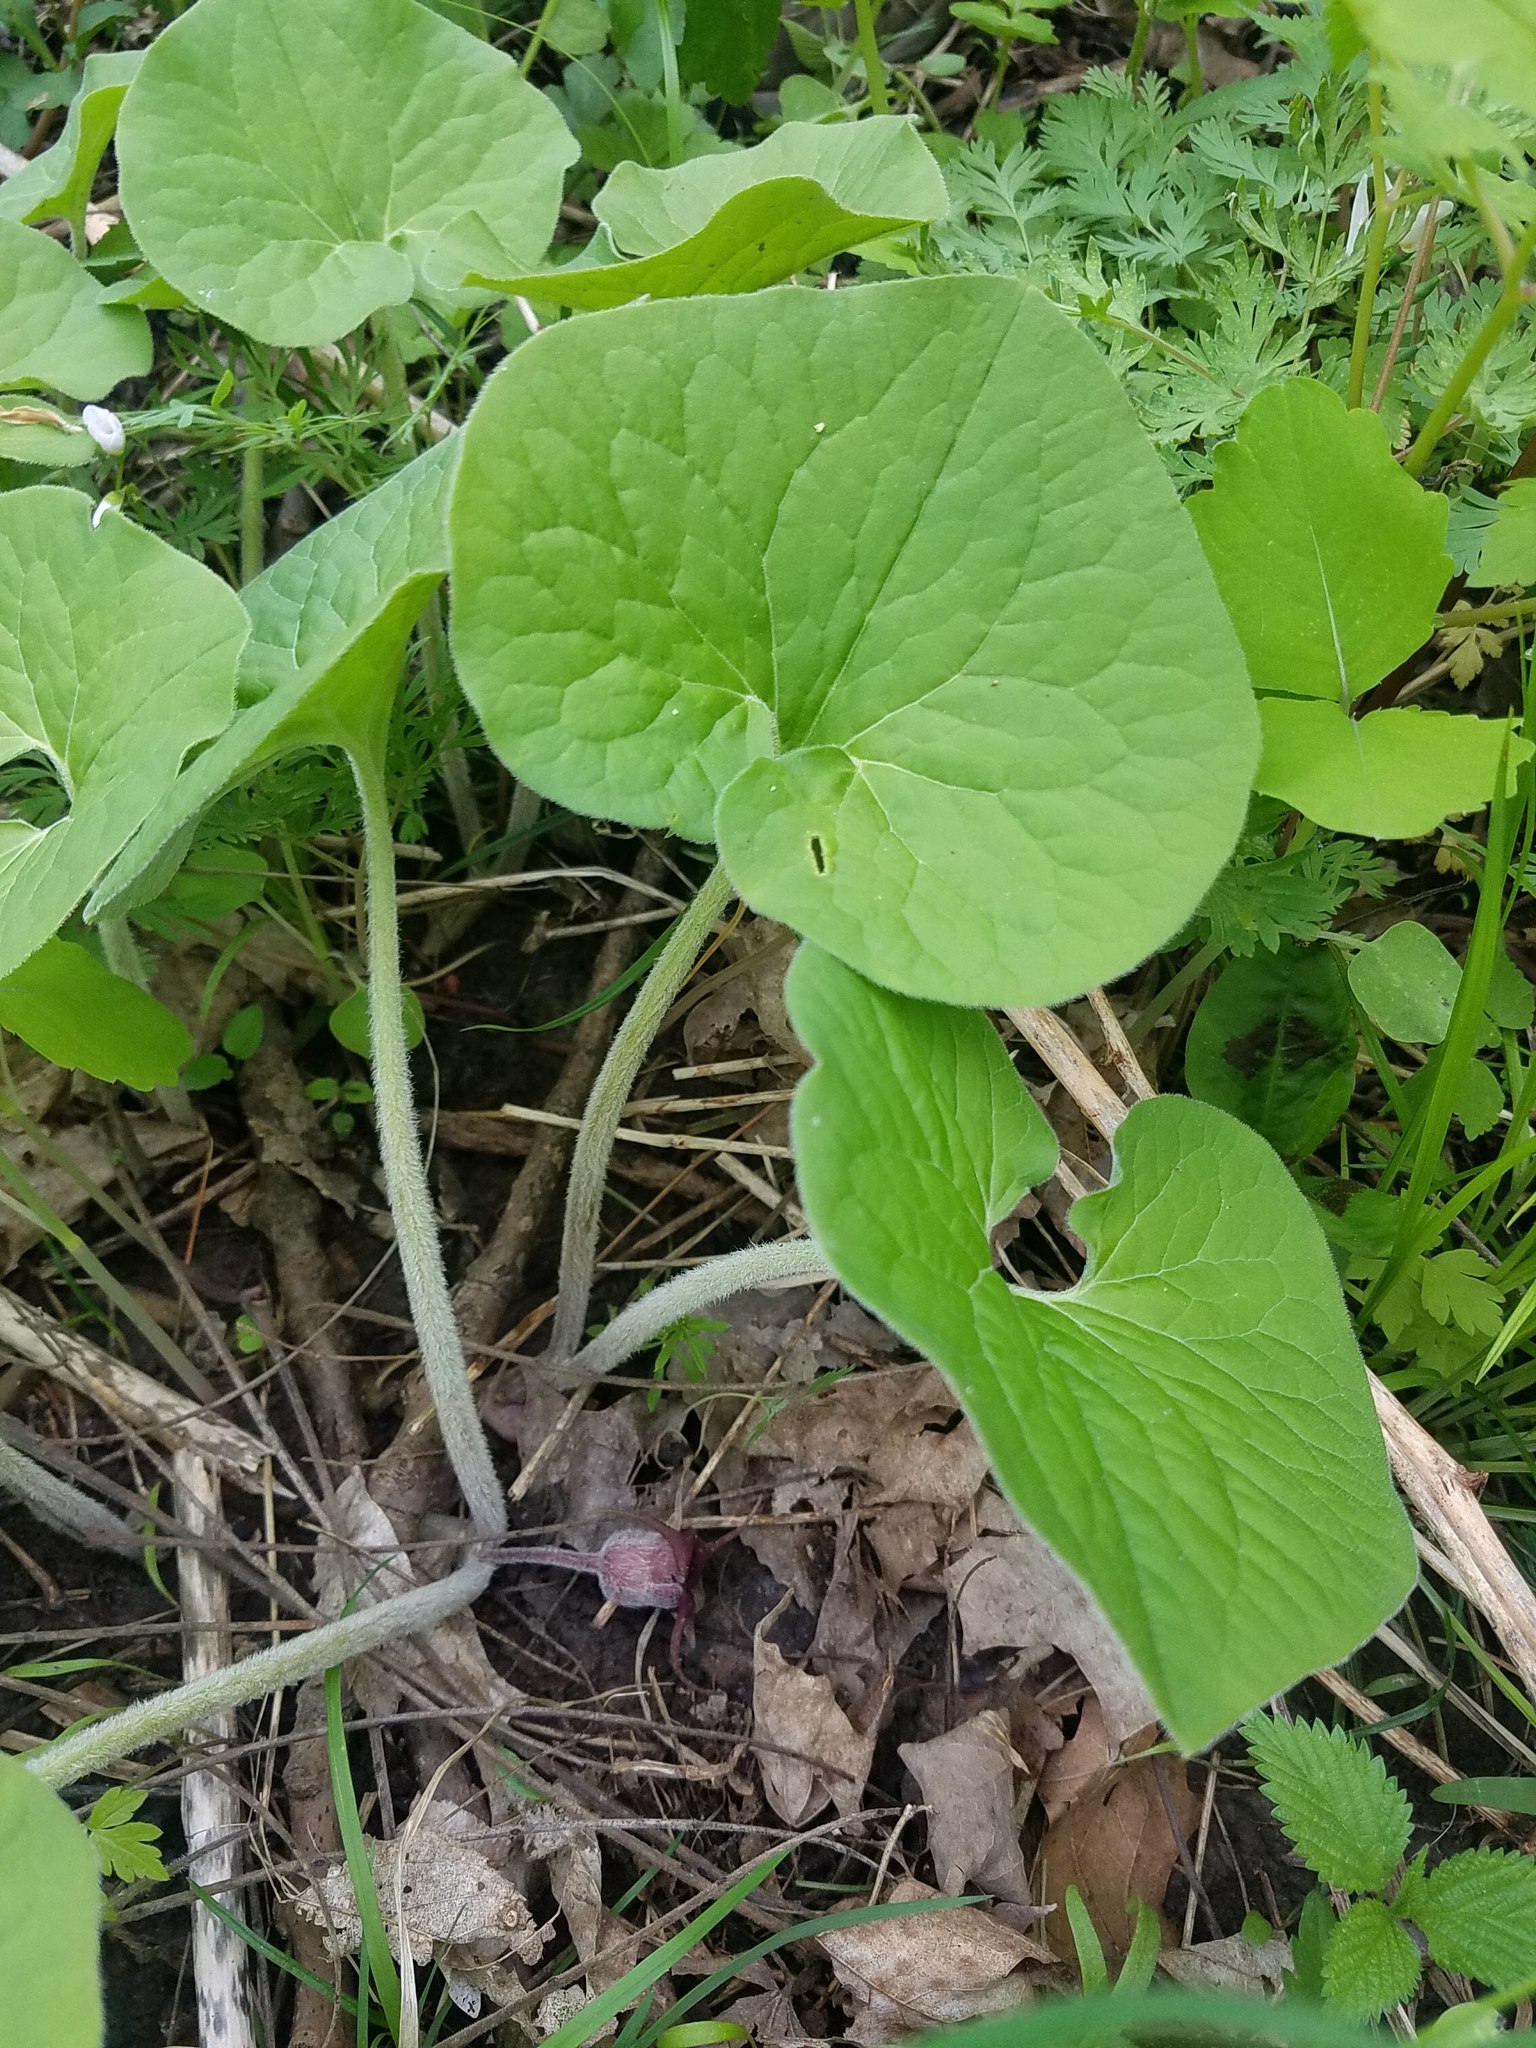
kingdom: Plantae
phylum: Tracheophyta
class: Magnoliopsida
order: Piperales
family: Aristolochiaceae
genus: Asarum
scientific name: Asarum canadense
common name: Wild ginger
